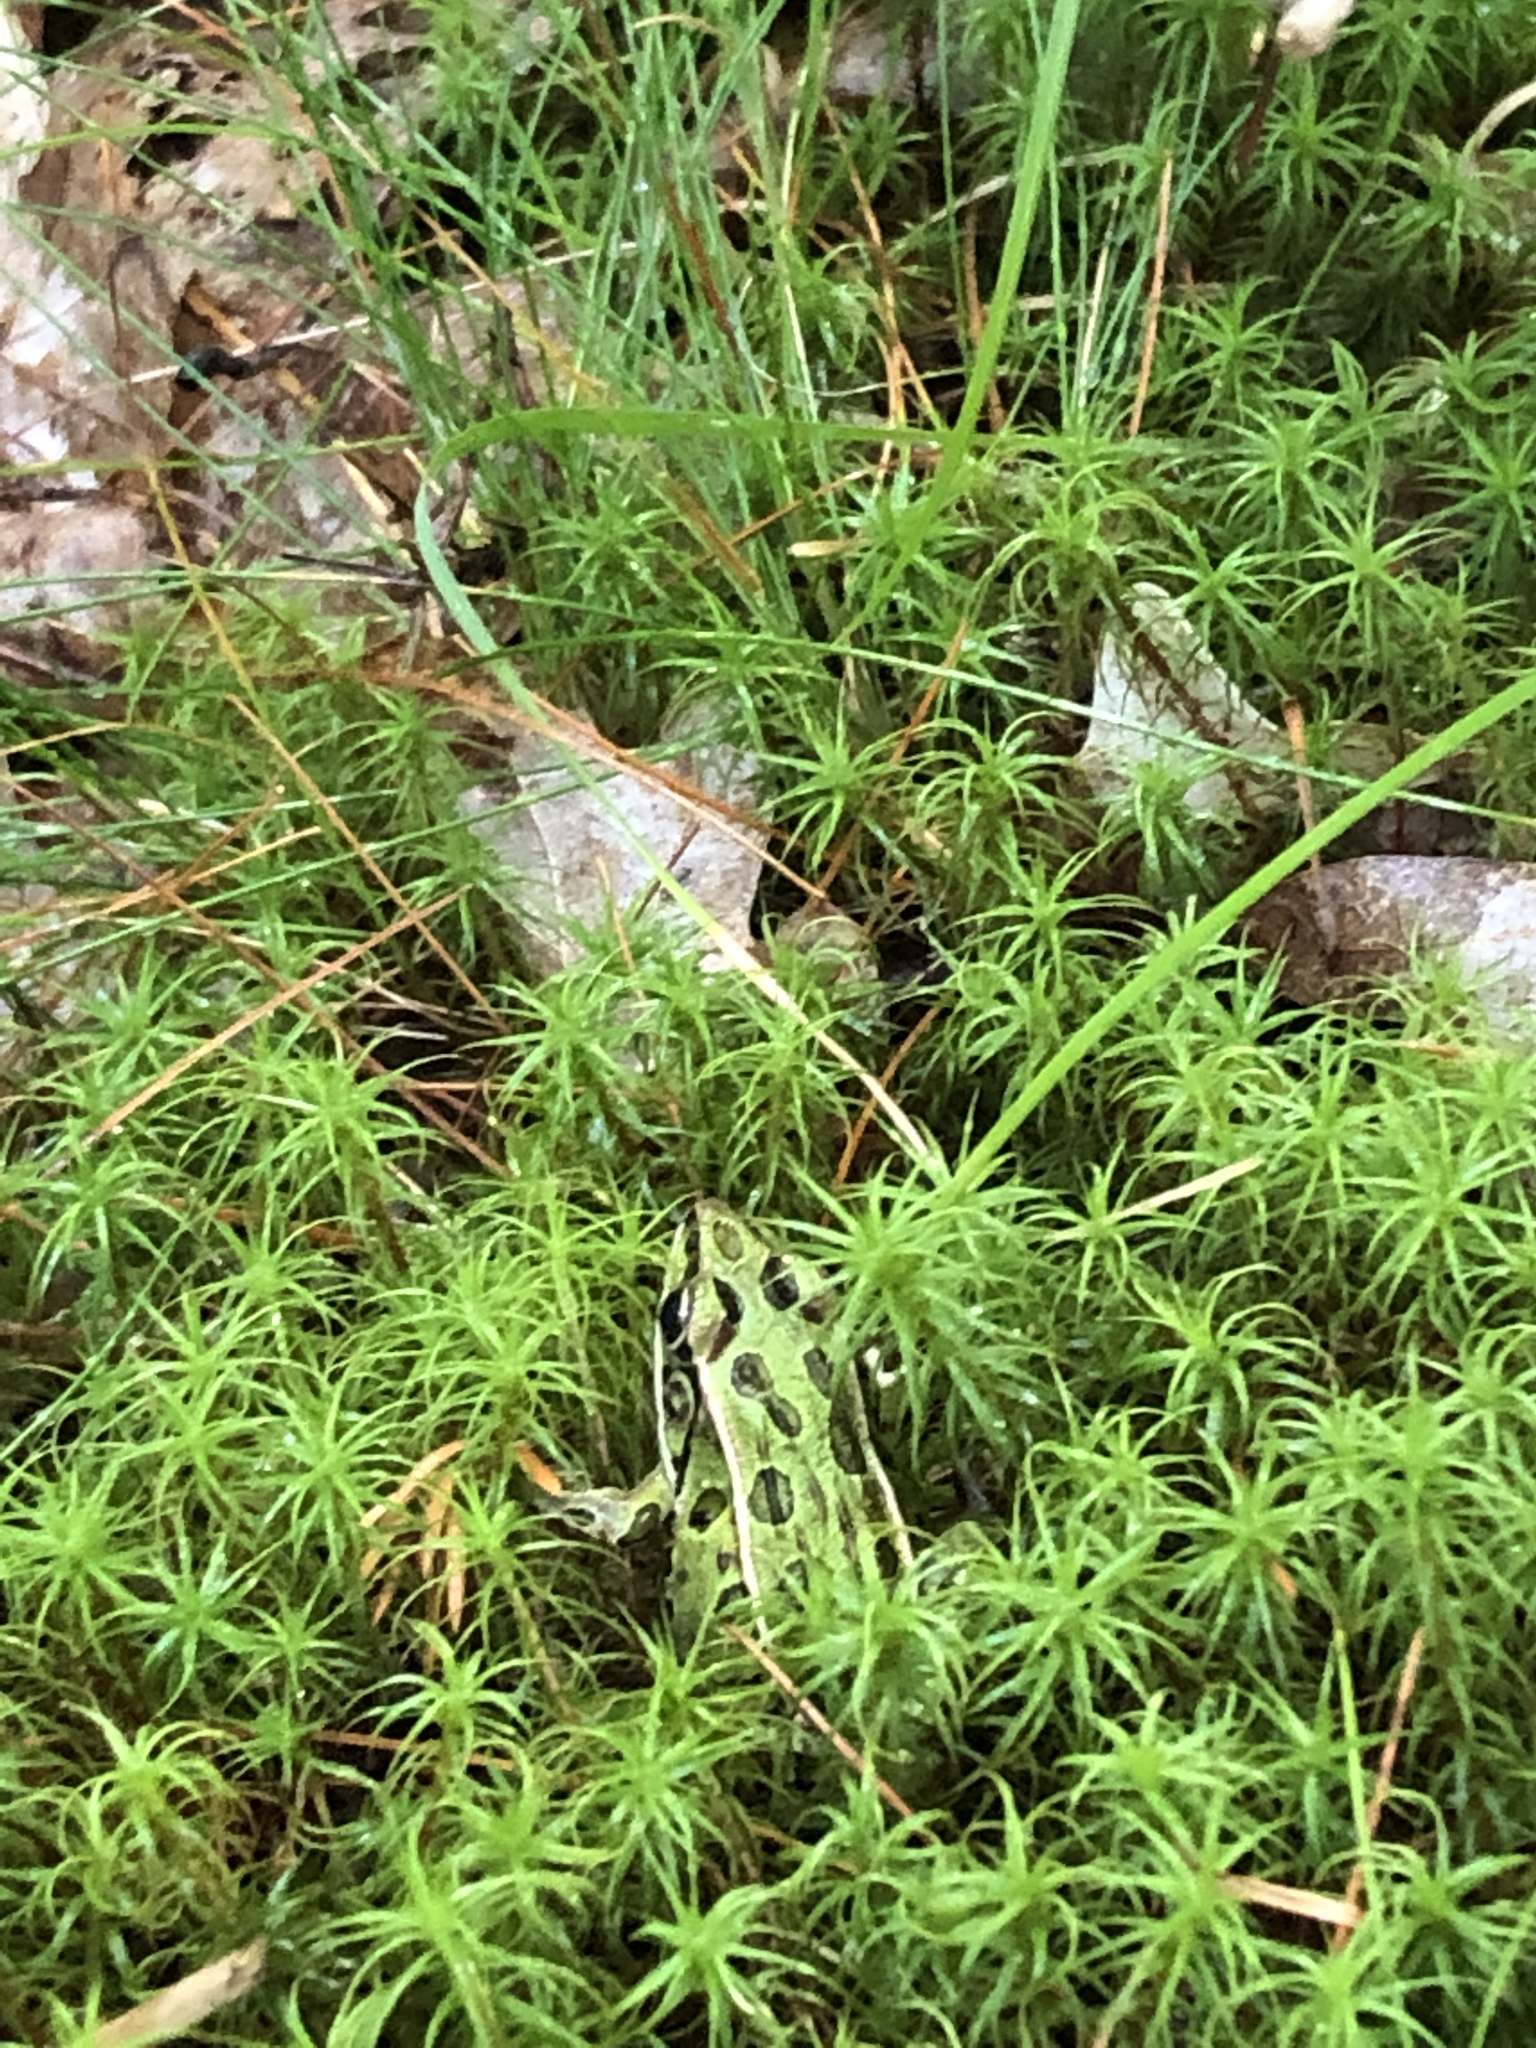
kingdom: Animalia
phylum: Chordata
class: Amphibia
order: Anura
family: Ranidae
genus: Lithobates
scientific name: Lithobates pipiens
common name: Northern leopard frog
